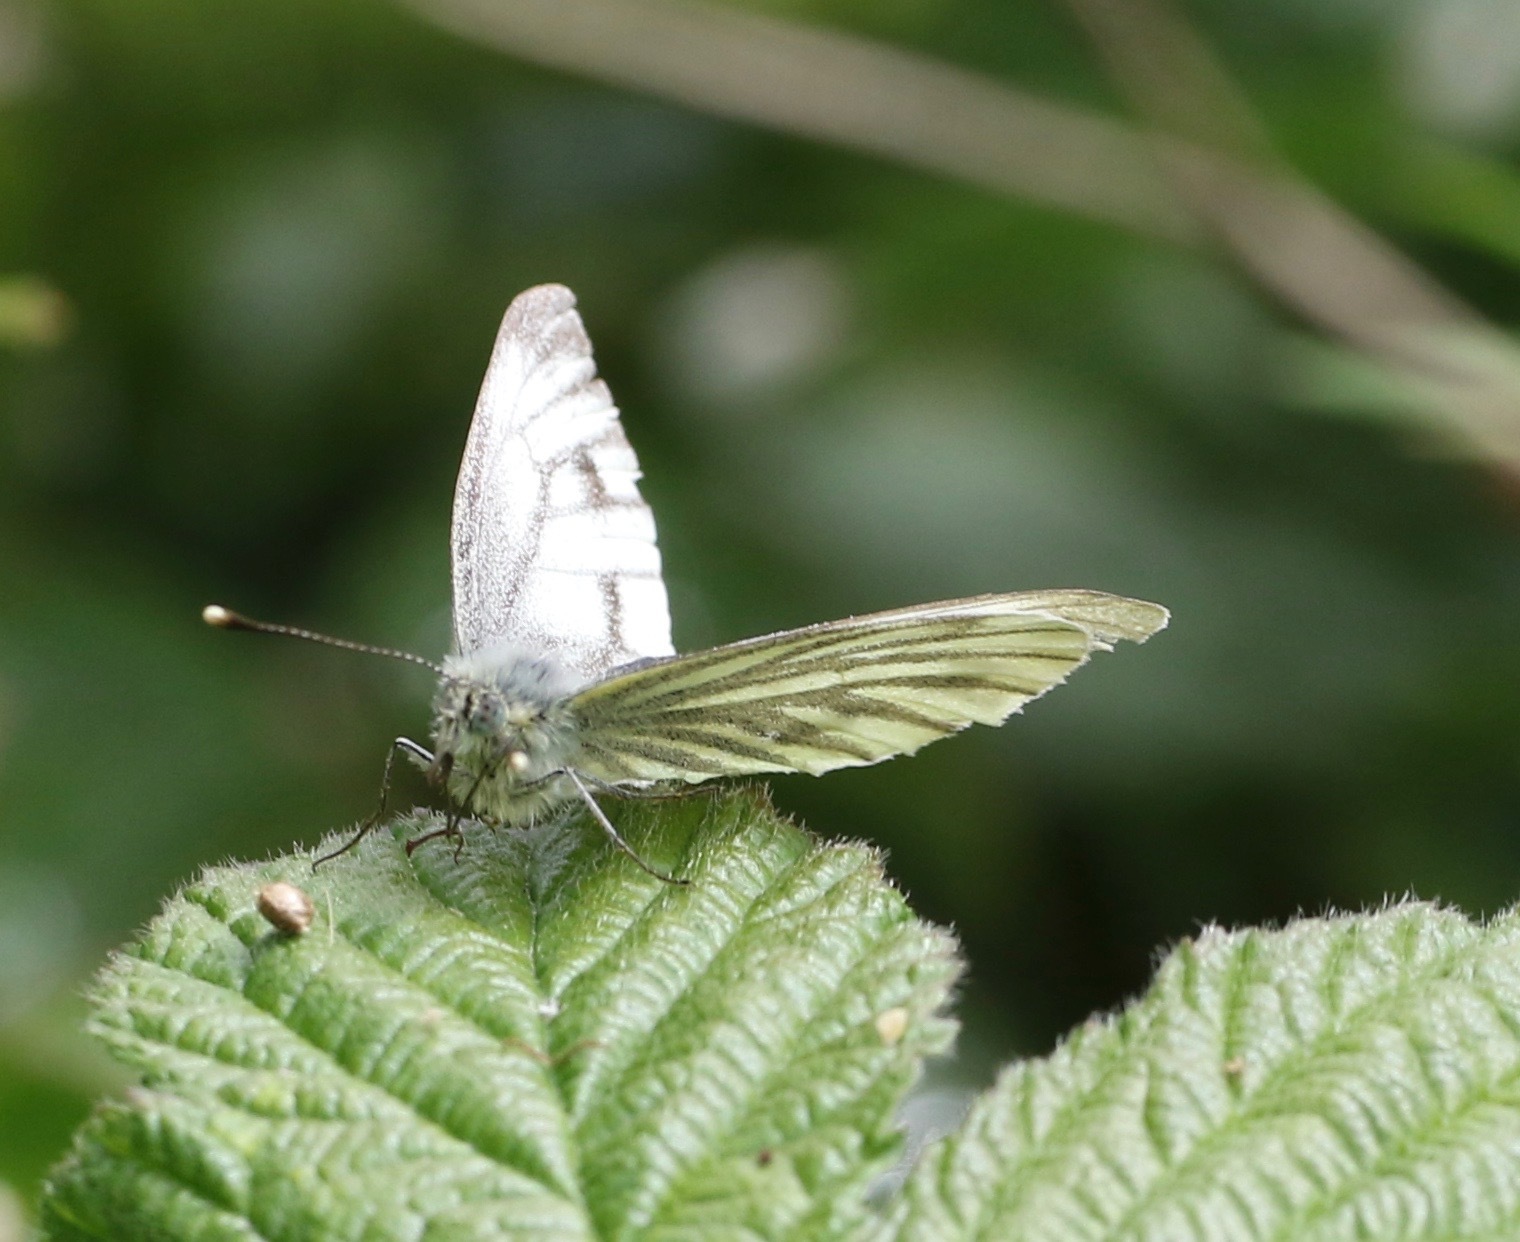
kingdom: Animalia
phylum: Arthropoda
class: Insecta
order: Lepidoptera
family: Pieridae
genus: Pieris
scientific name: Pieris napi
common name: Green-veined white
